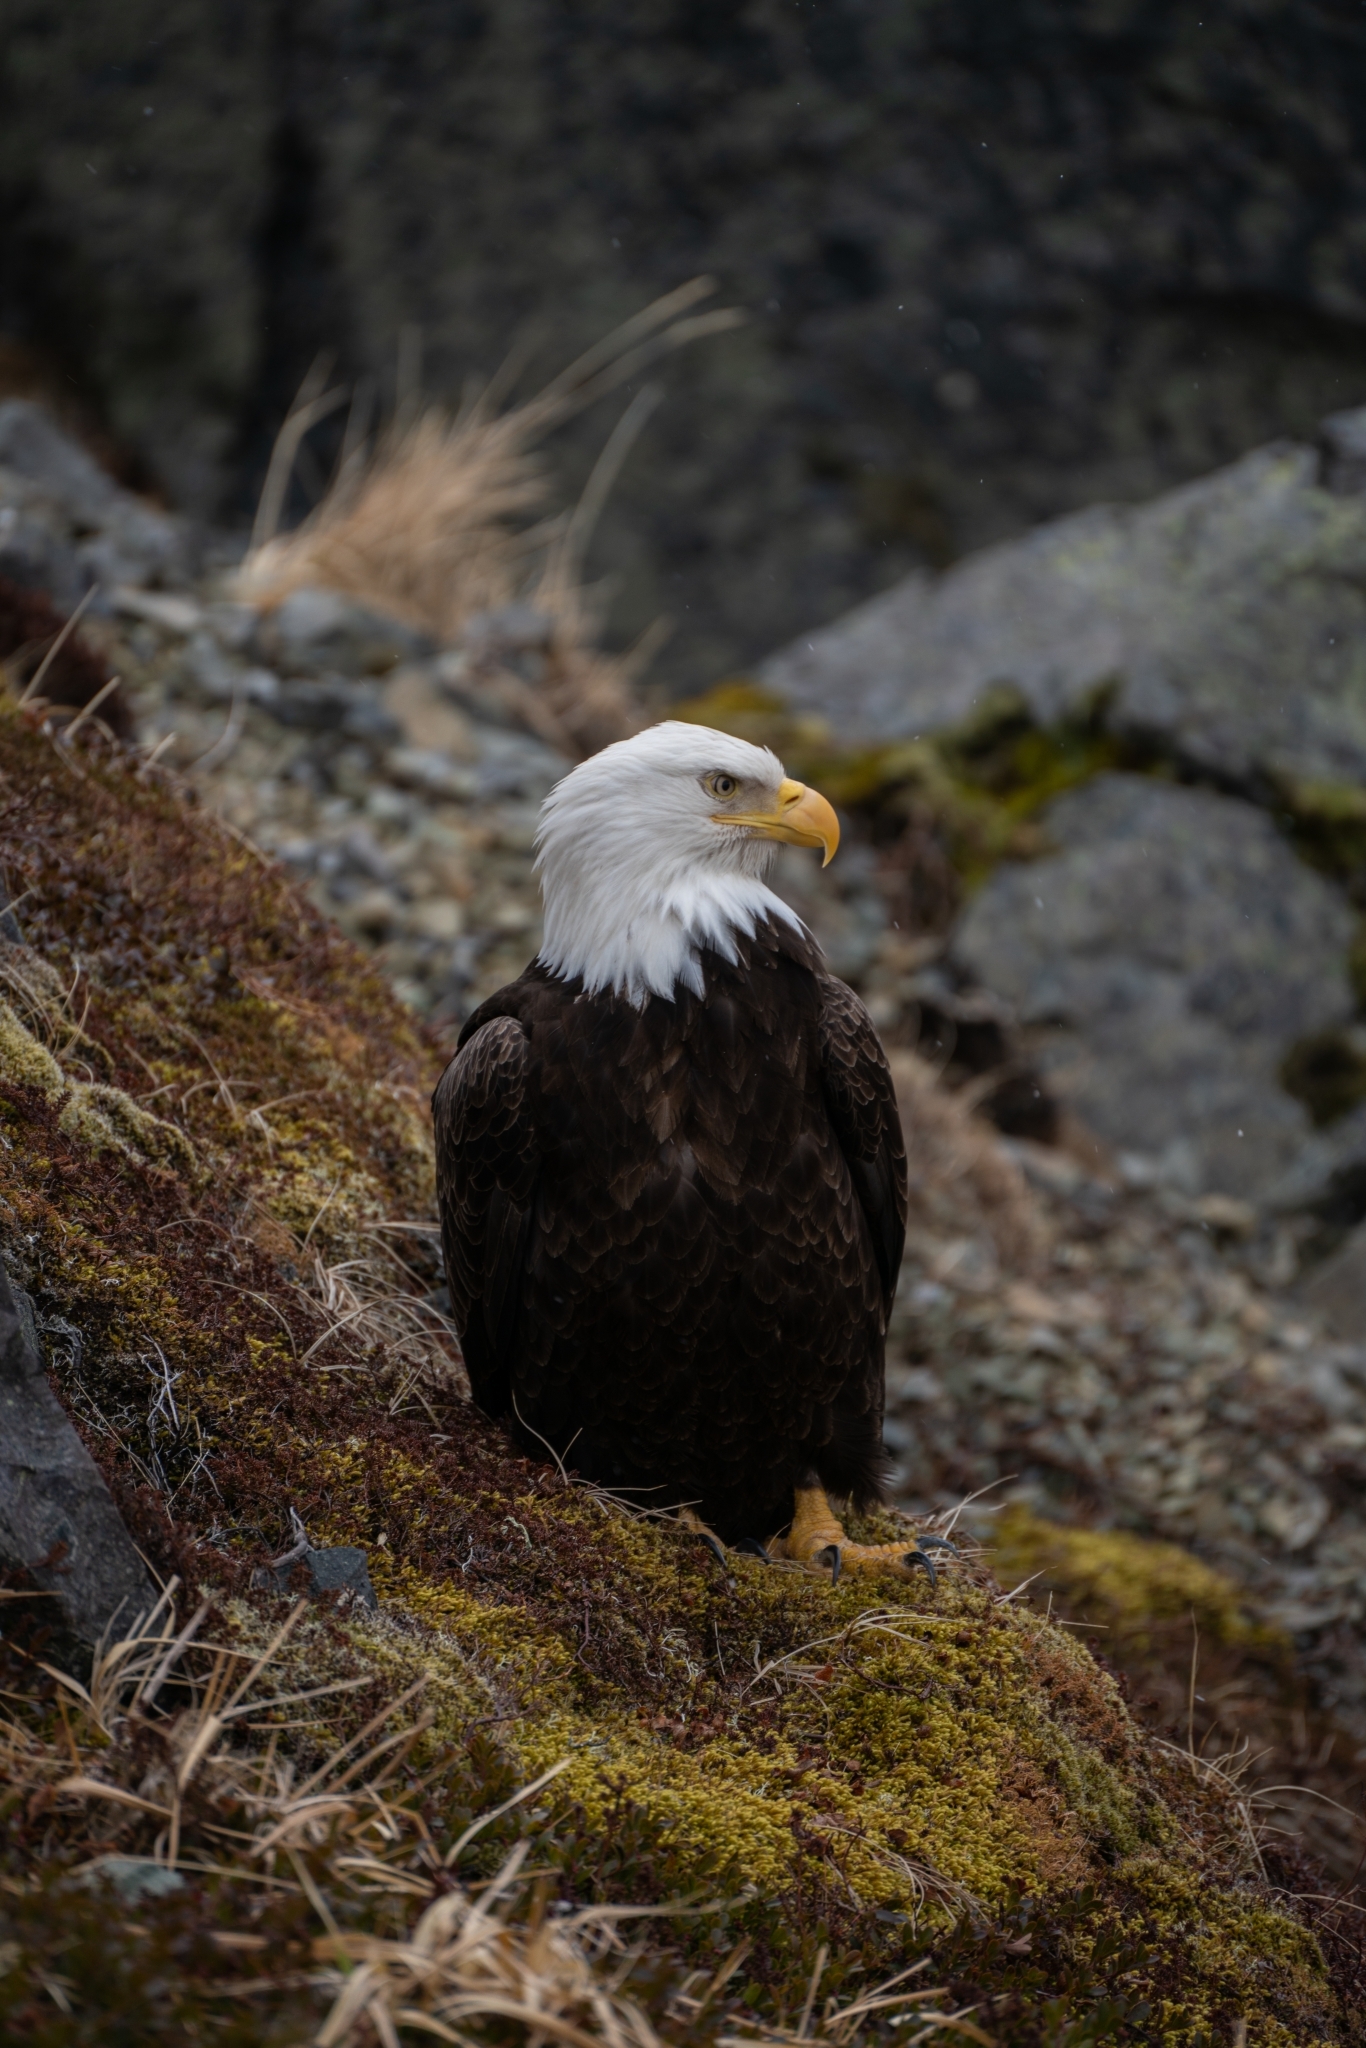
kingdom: Animalia
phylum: Chordata
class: Aves
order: Accipitriformes
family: Accipitridae
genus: Haliaeetus
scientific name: Haliaeetus leucocephalus
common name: Bald eagle
